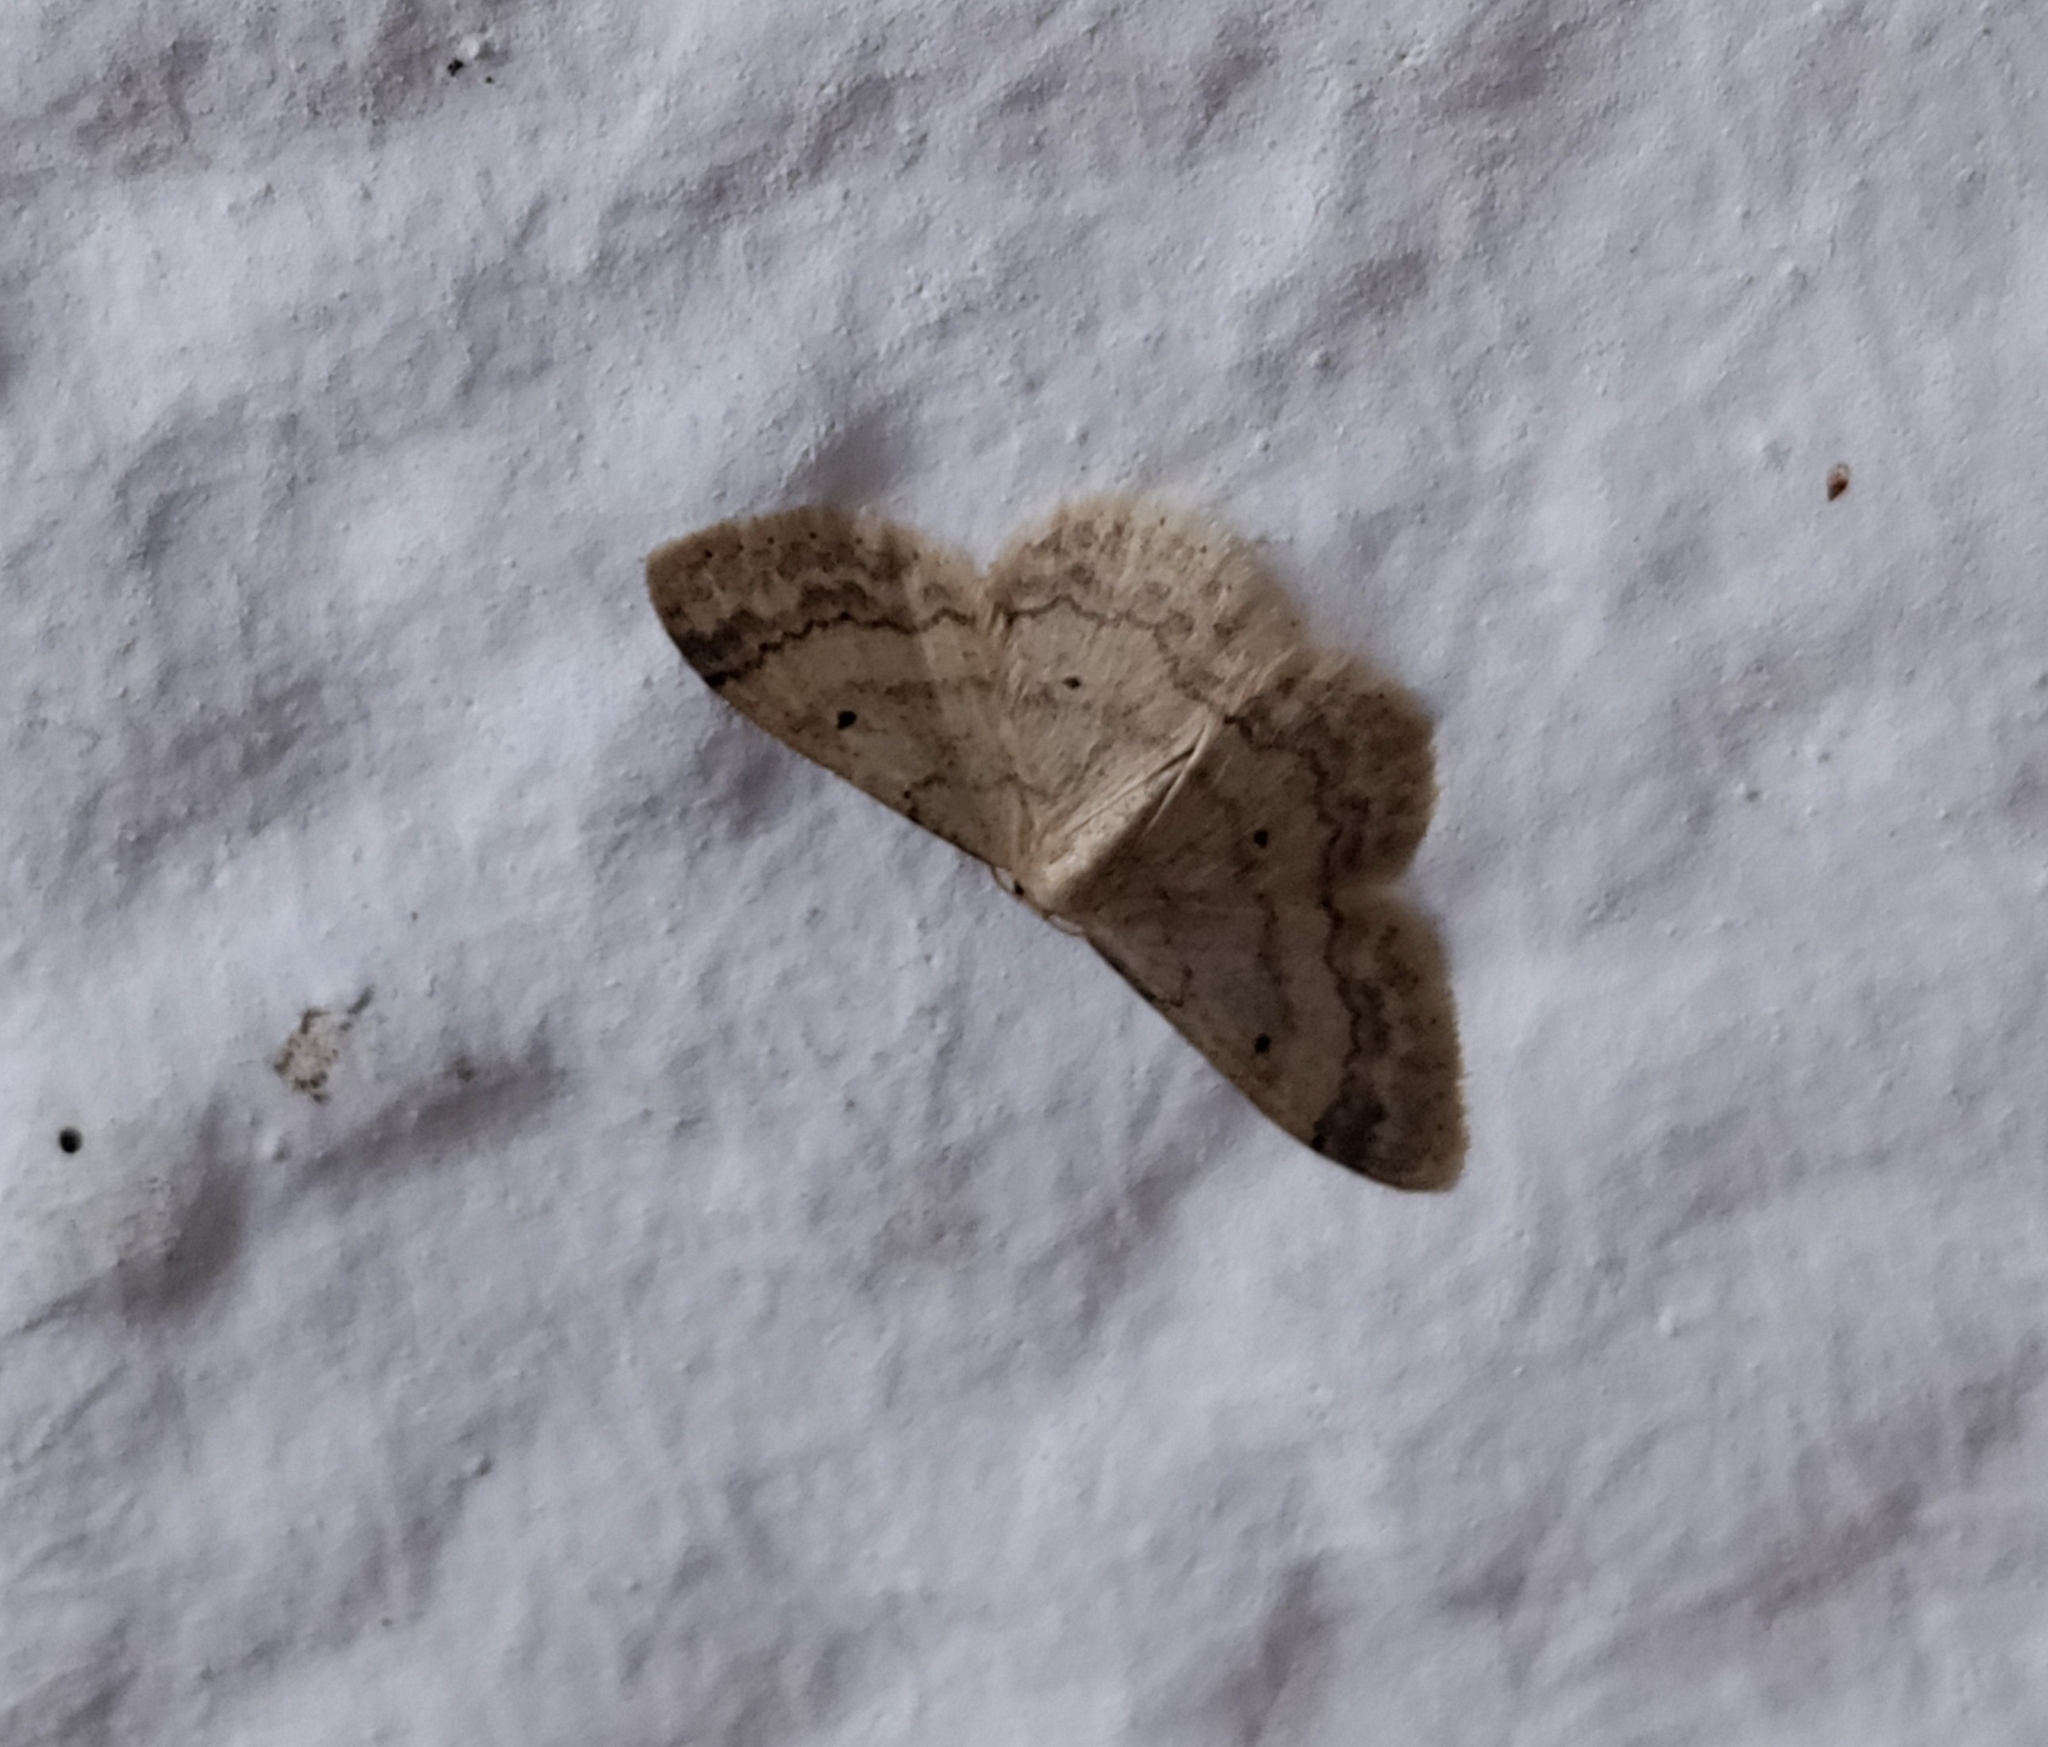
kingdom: Animalia
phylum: Arthropoda
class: Insecta
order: Lepidoptera
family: Geometridae
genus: Idaea
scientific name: Idaea biselata
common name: Small fan-footed wave
